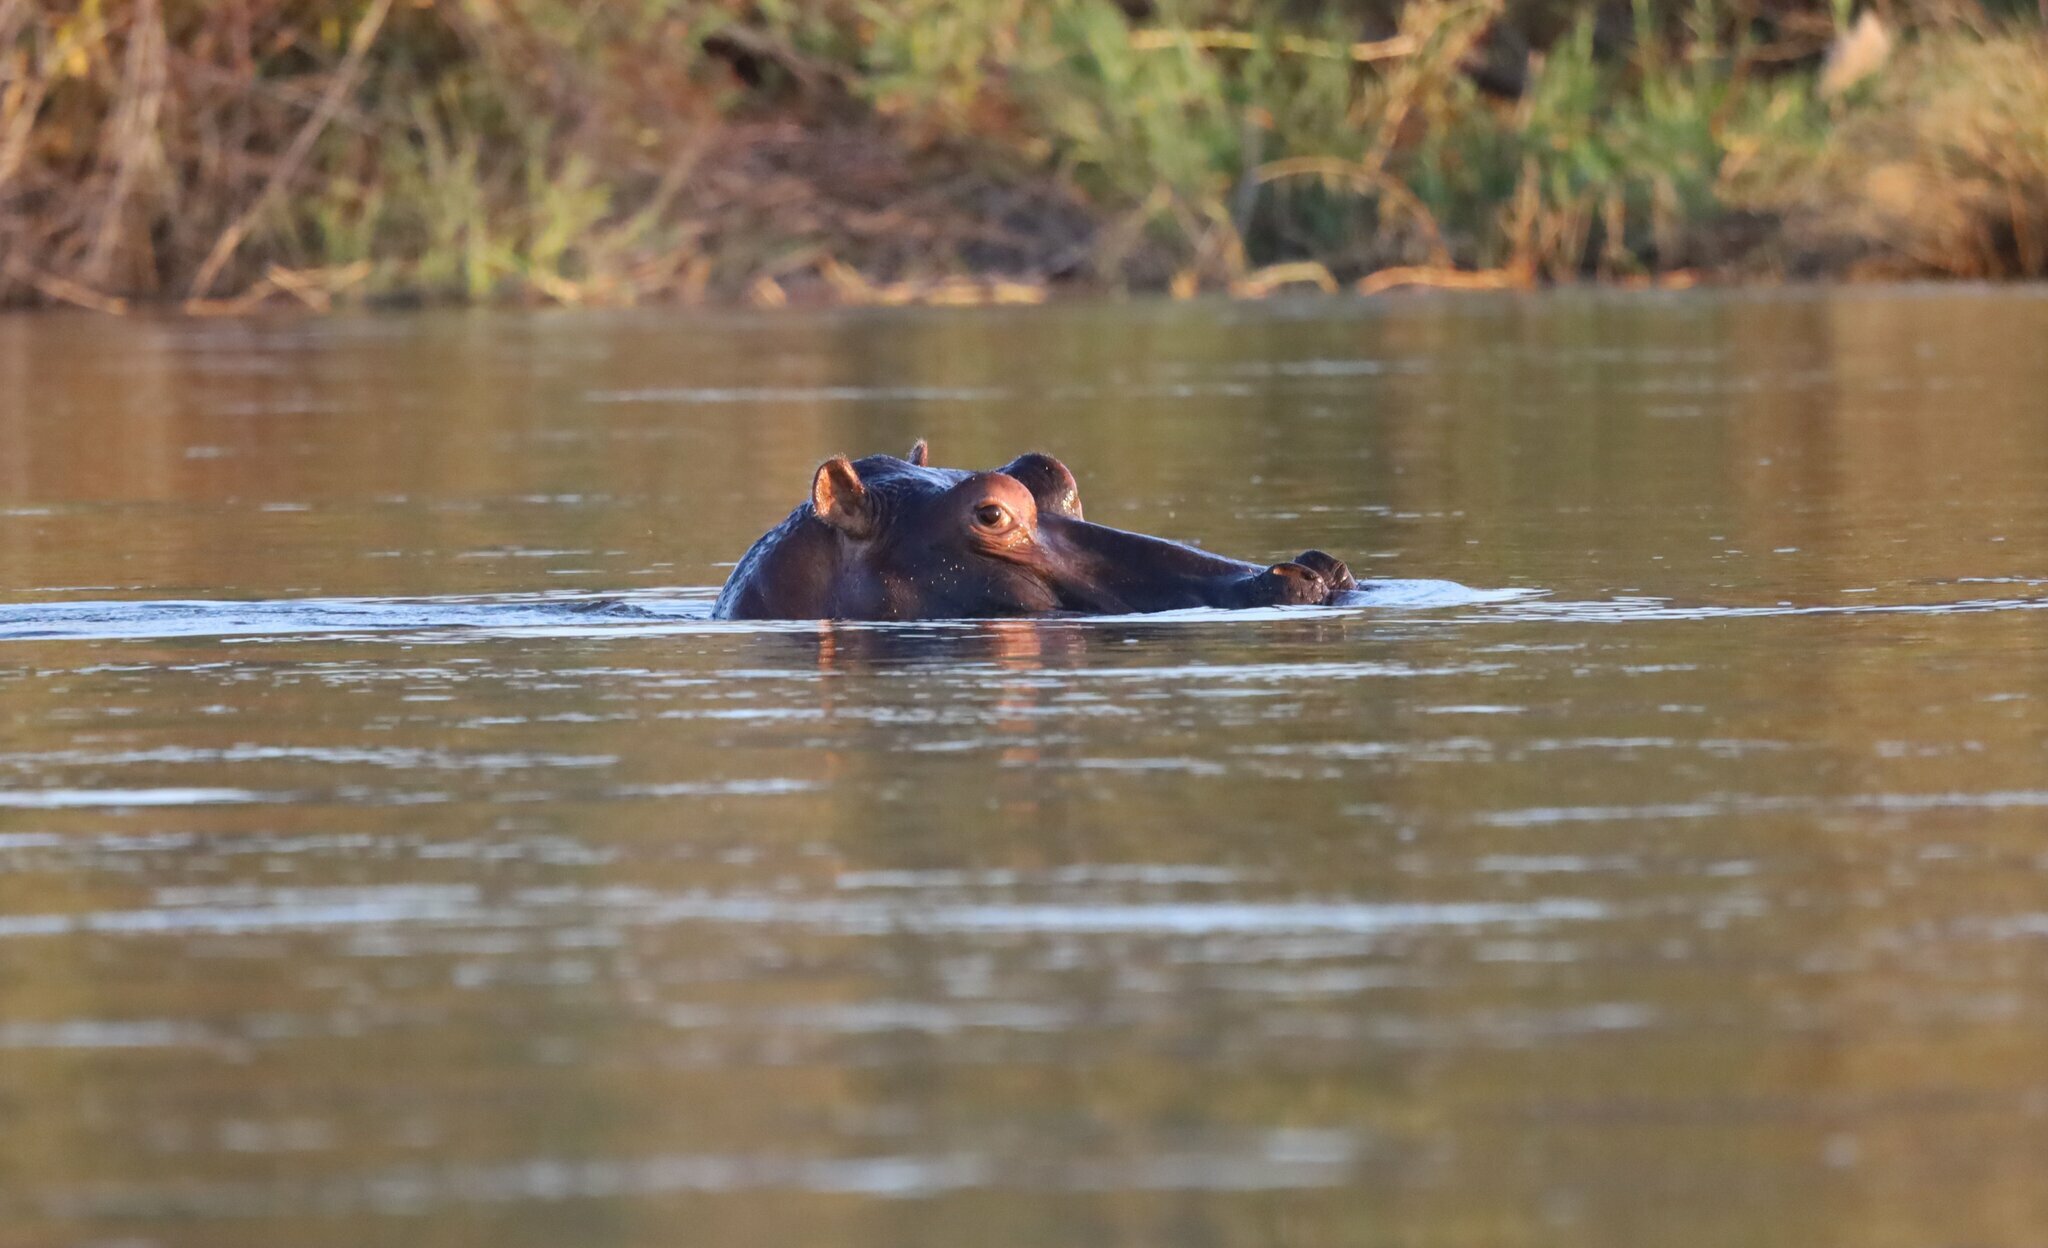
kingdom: Animalia
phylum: Chordata
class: Mammalia
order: Artiodactyla
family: Hippopotamidae
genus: Hippopotamus
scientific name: Hippopotamus amphibius
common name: Common hippopotamus
